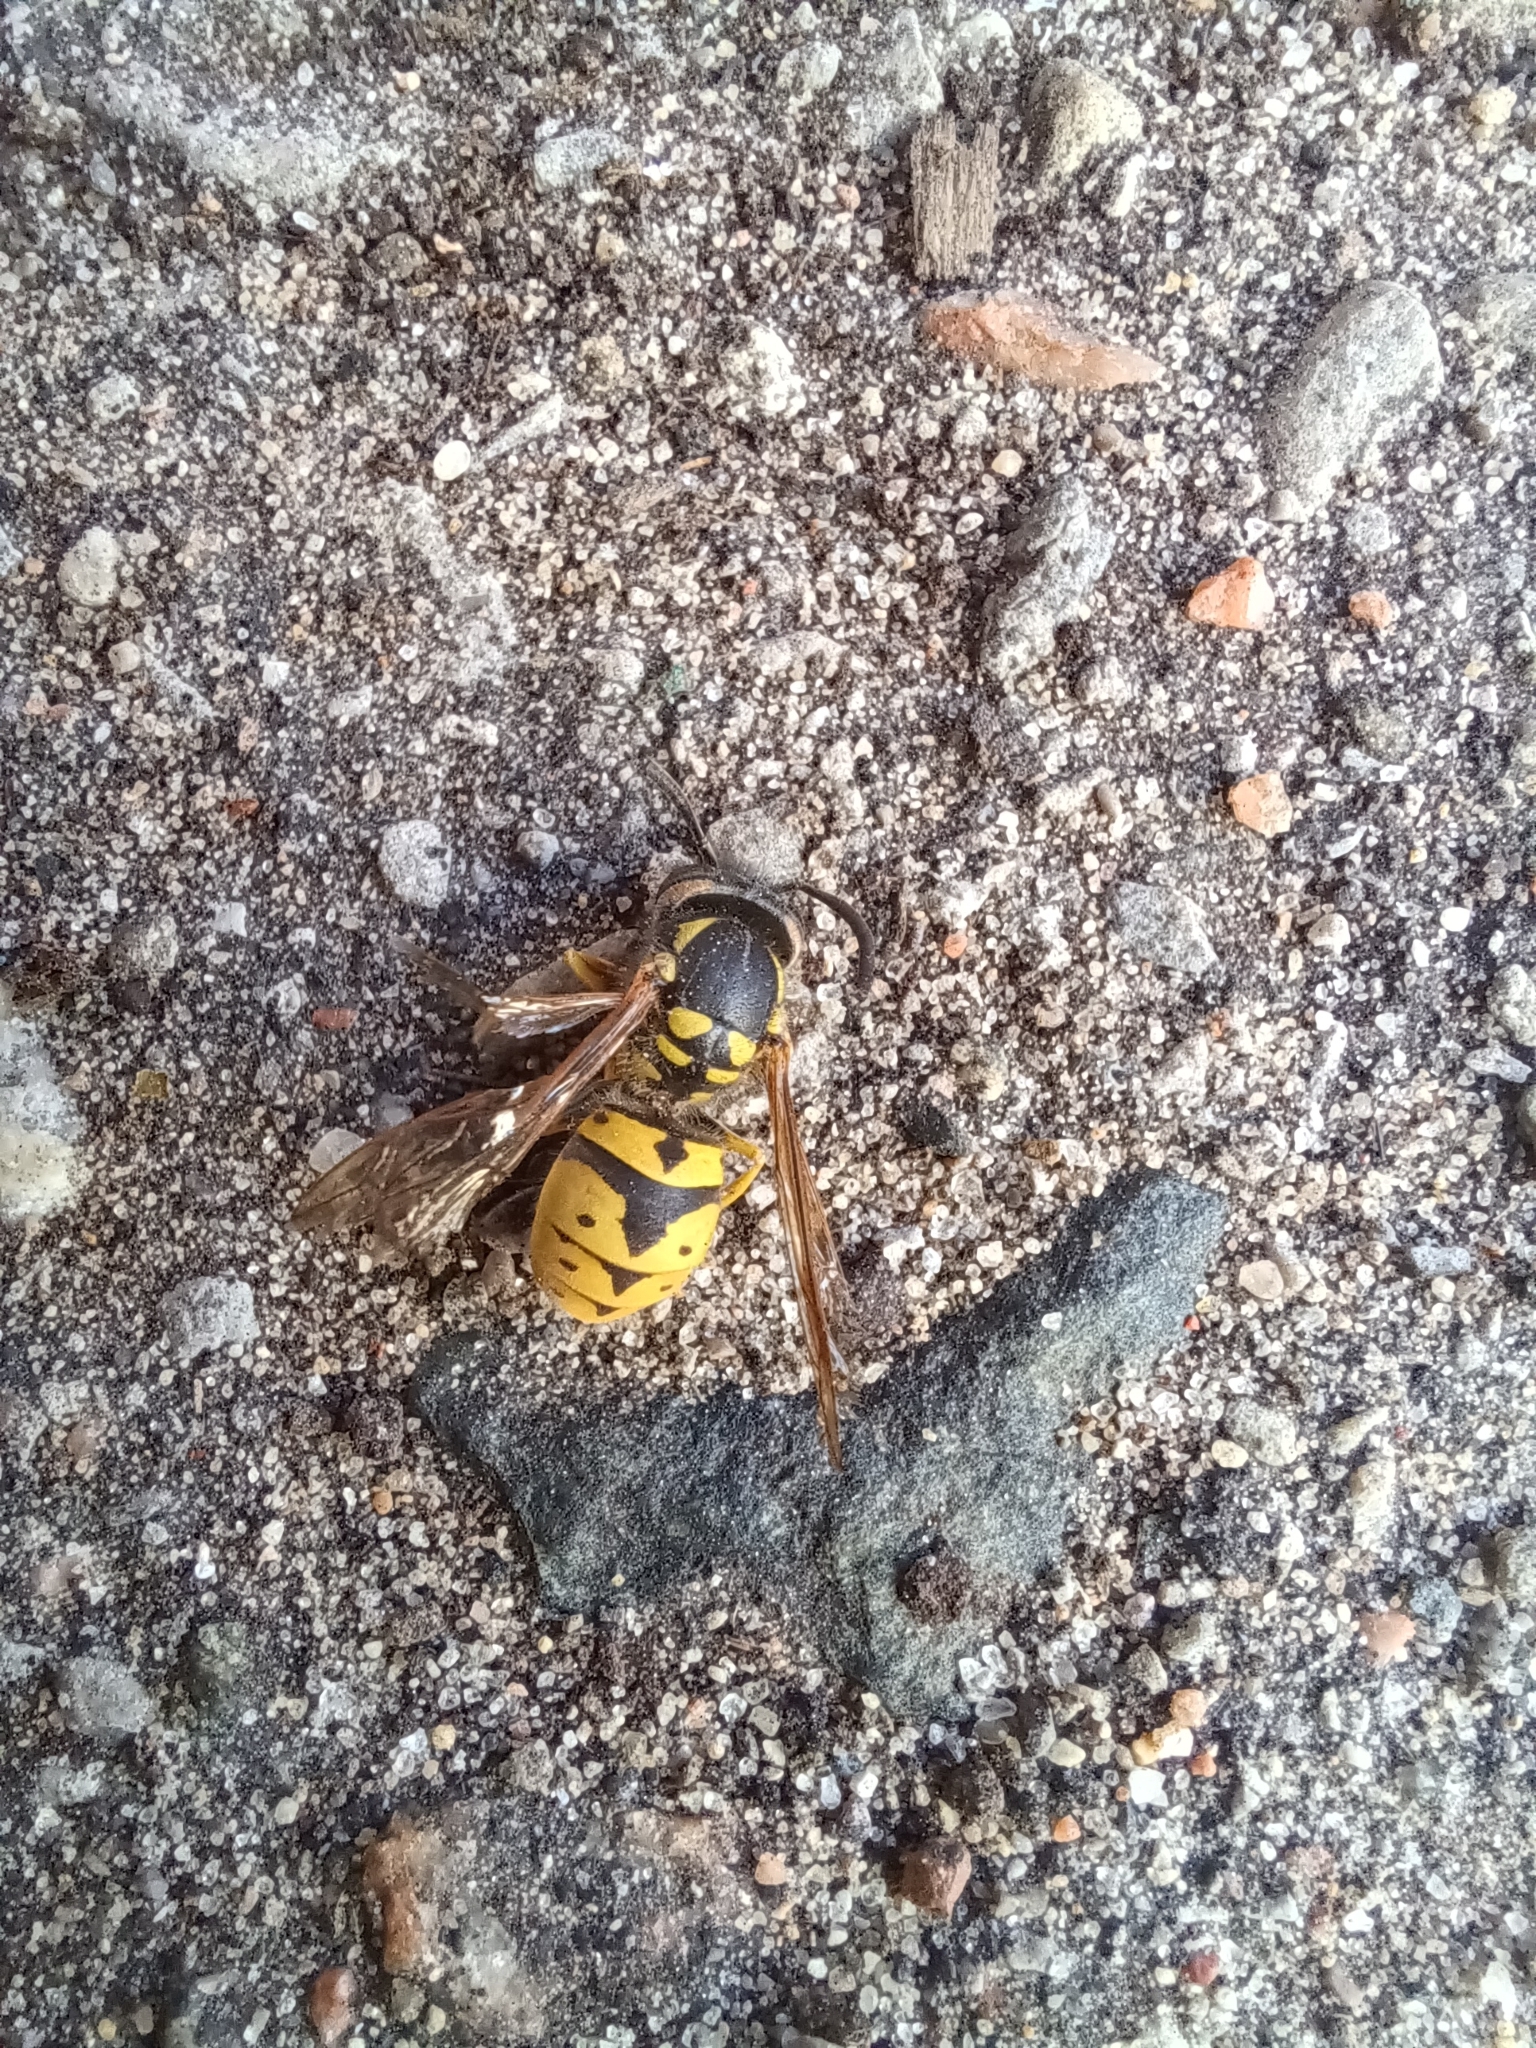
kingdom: Animalia
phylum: Arthropoda
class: Insecta
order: Hymenoptera
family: Vespidae
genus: Vespula
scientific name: Vespula germanica
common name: German wasp
